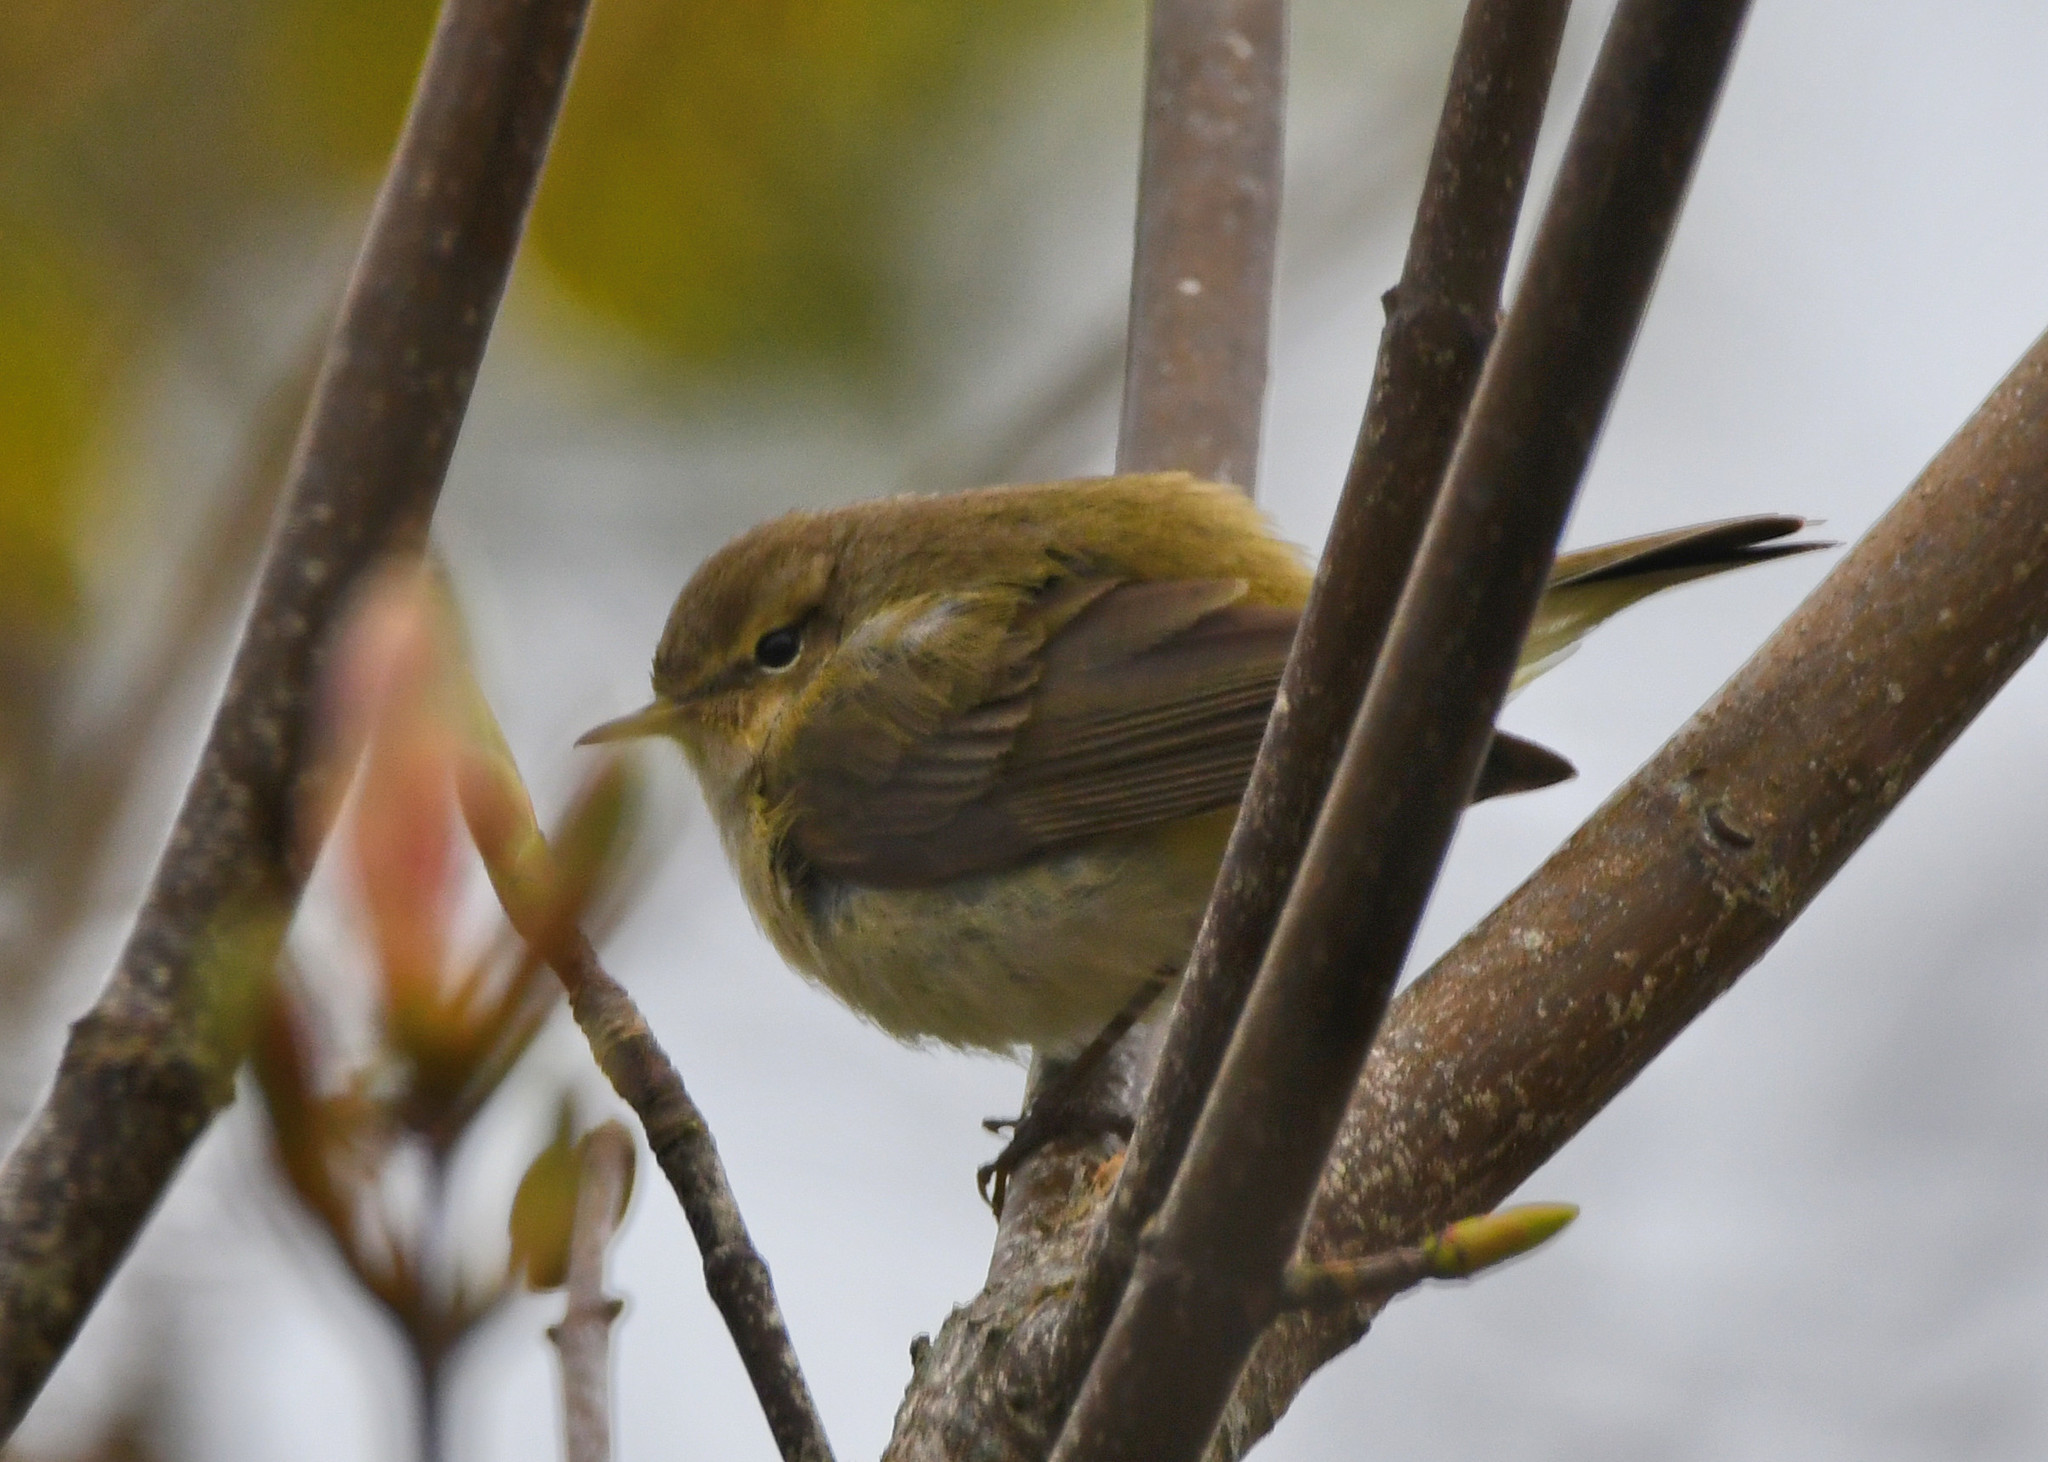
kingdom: Animalia
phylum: Chordata
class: Aves
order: Passeriformes
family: Phylloscopidae
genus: Phylloscopus
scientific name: Phylloscopus collybita
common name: Common chiffchaff
